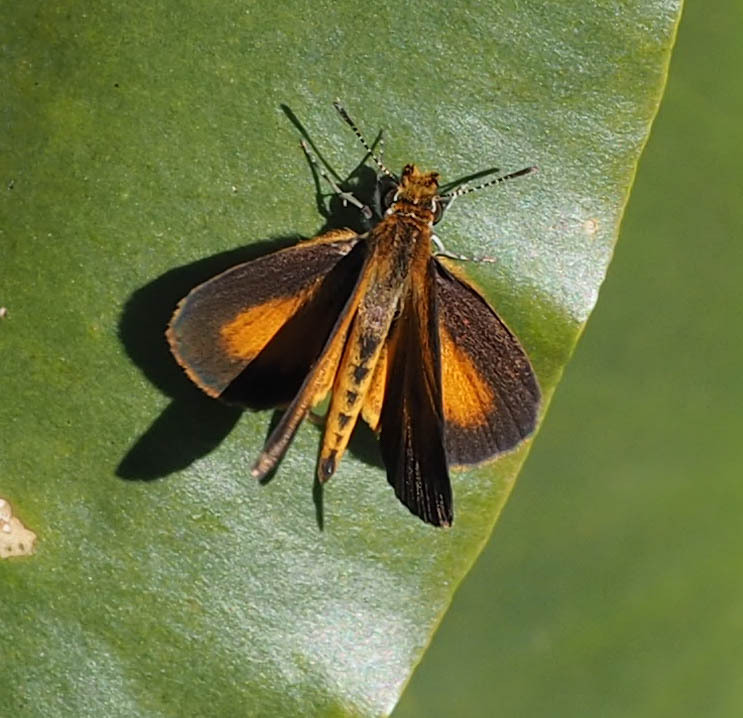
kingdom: Animalia
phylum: Arthropoda
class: Insecta
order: Lepidoptera
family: Hesperiidae
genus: Ancyloxypha
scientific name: Ancyloxypha numitor
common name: Least skipper
